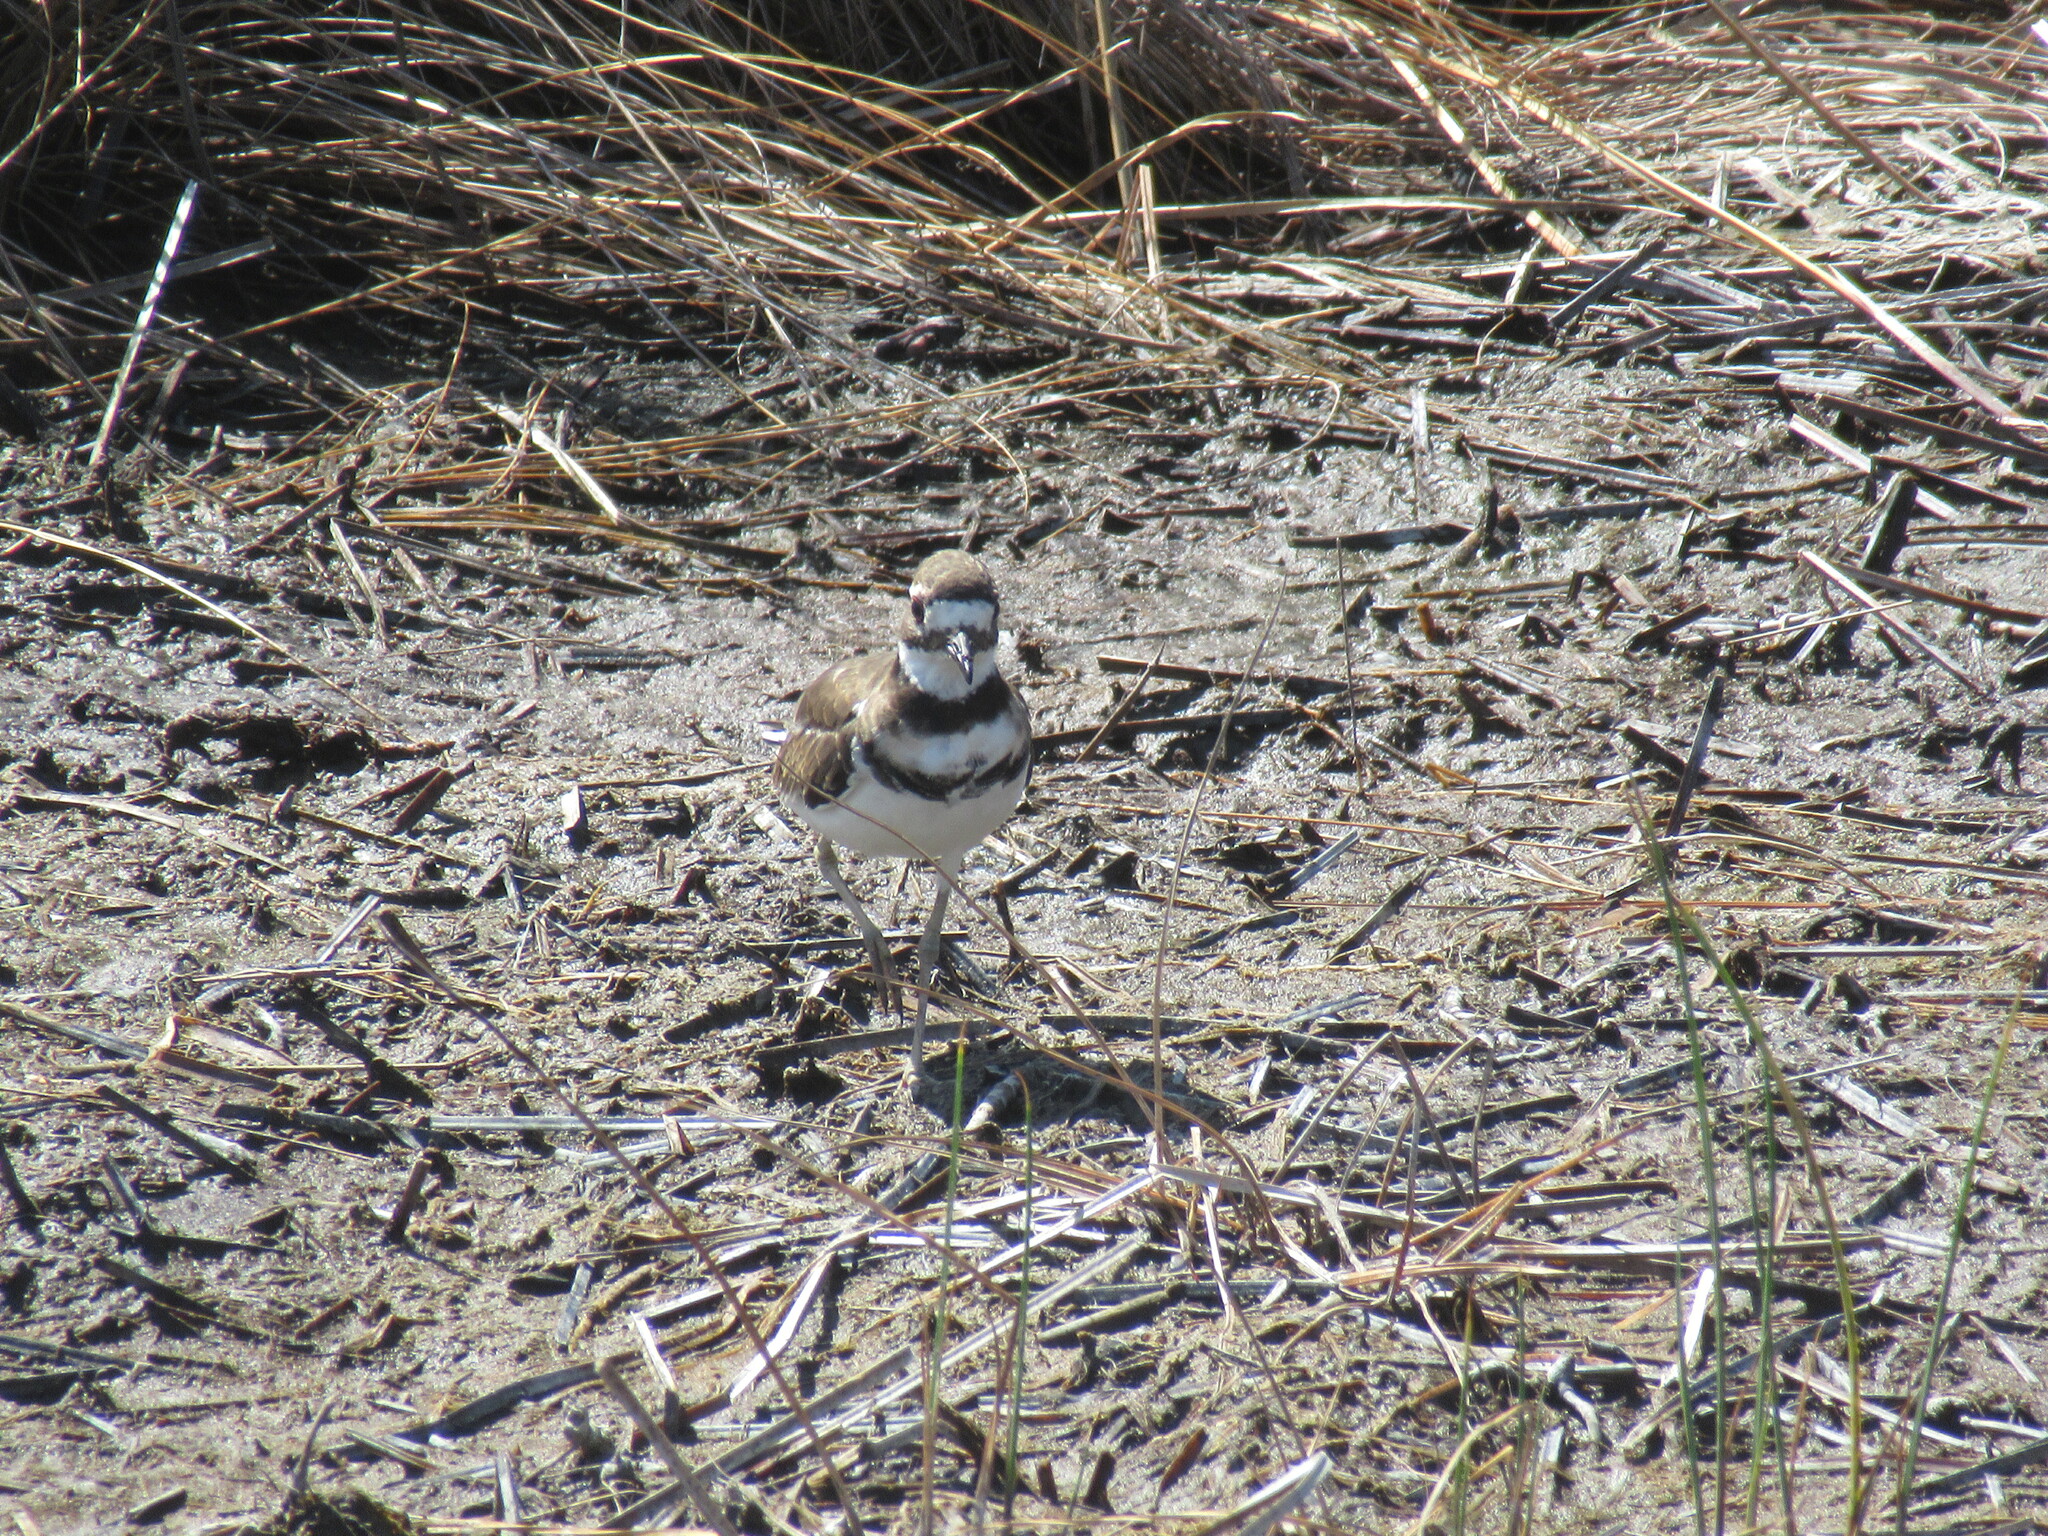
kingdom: Animalia
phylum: Chordata
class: Aves
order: Charadriiformes
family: Charadriidae
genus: Charadrius
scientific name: Charadrius vociferus
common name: Killdeer
